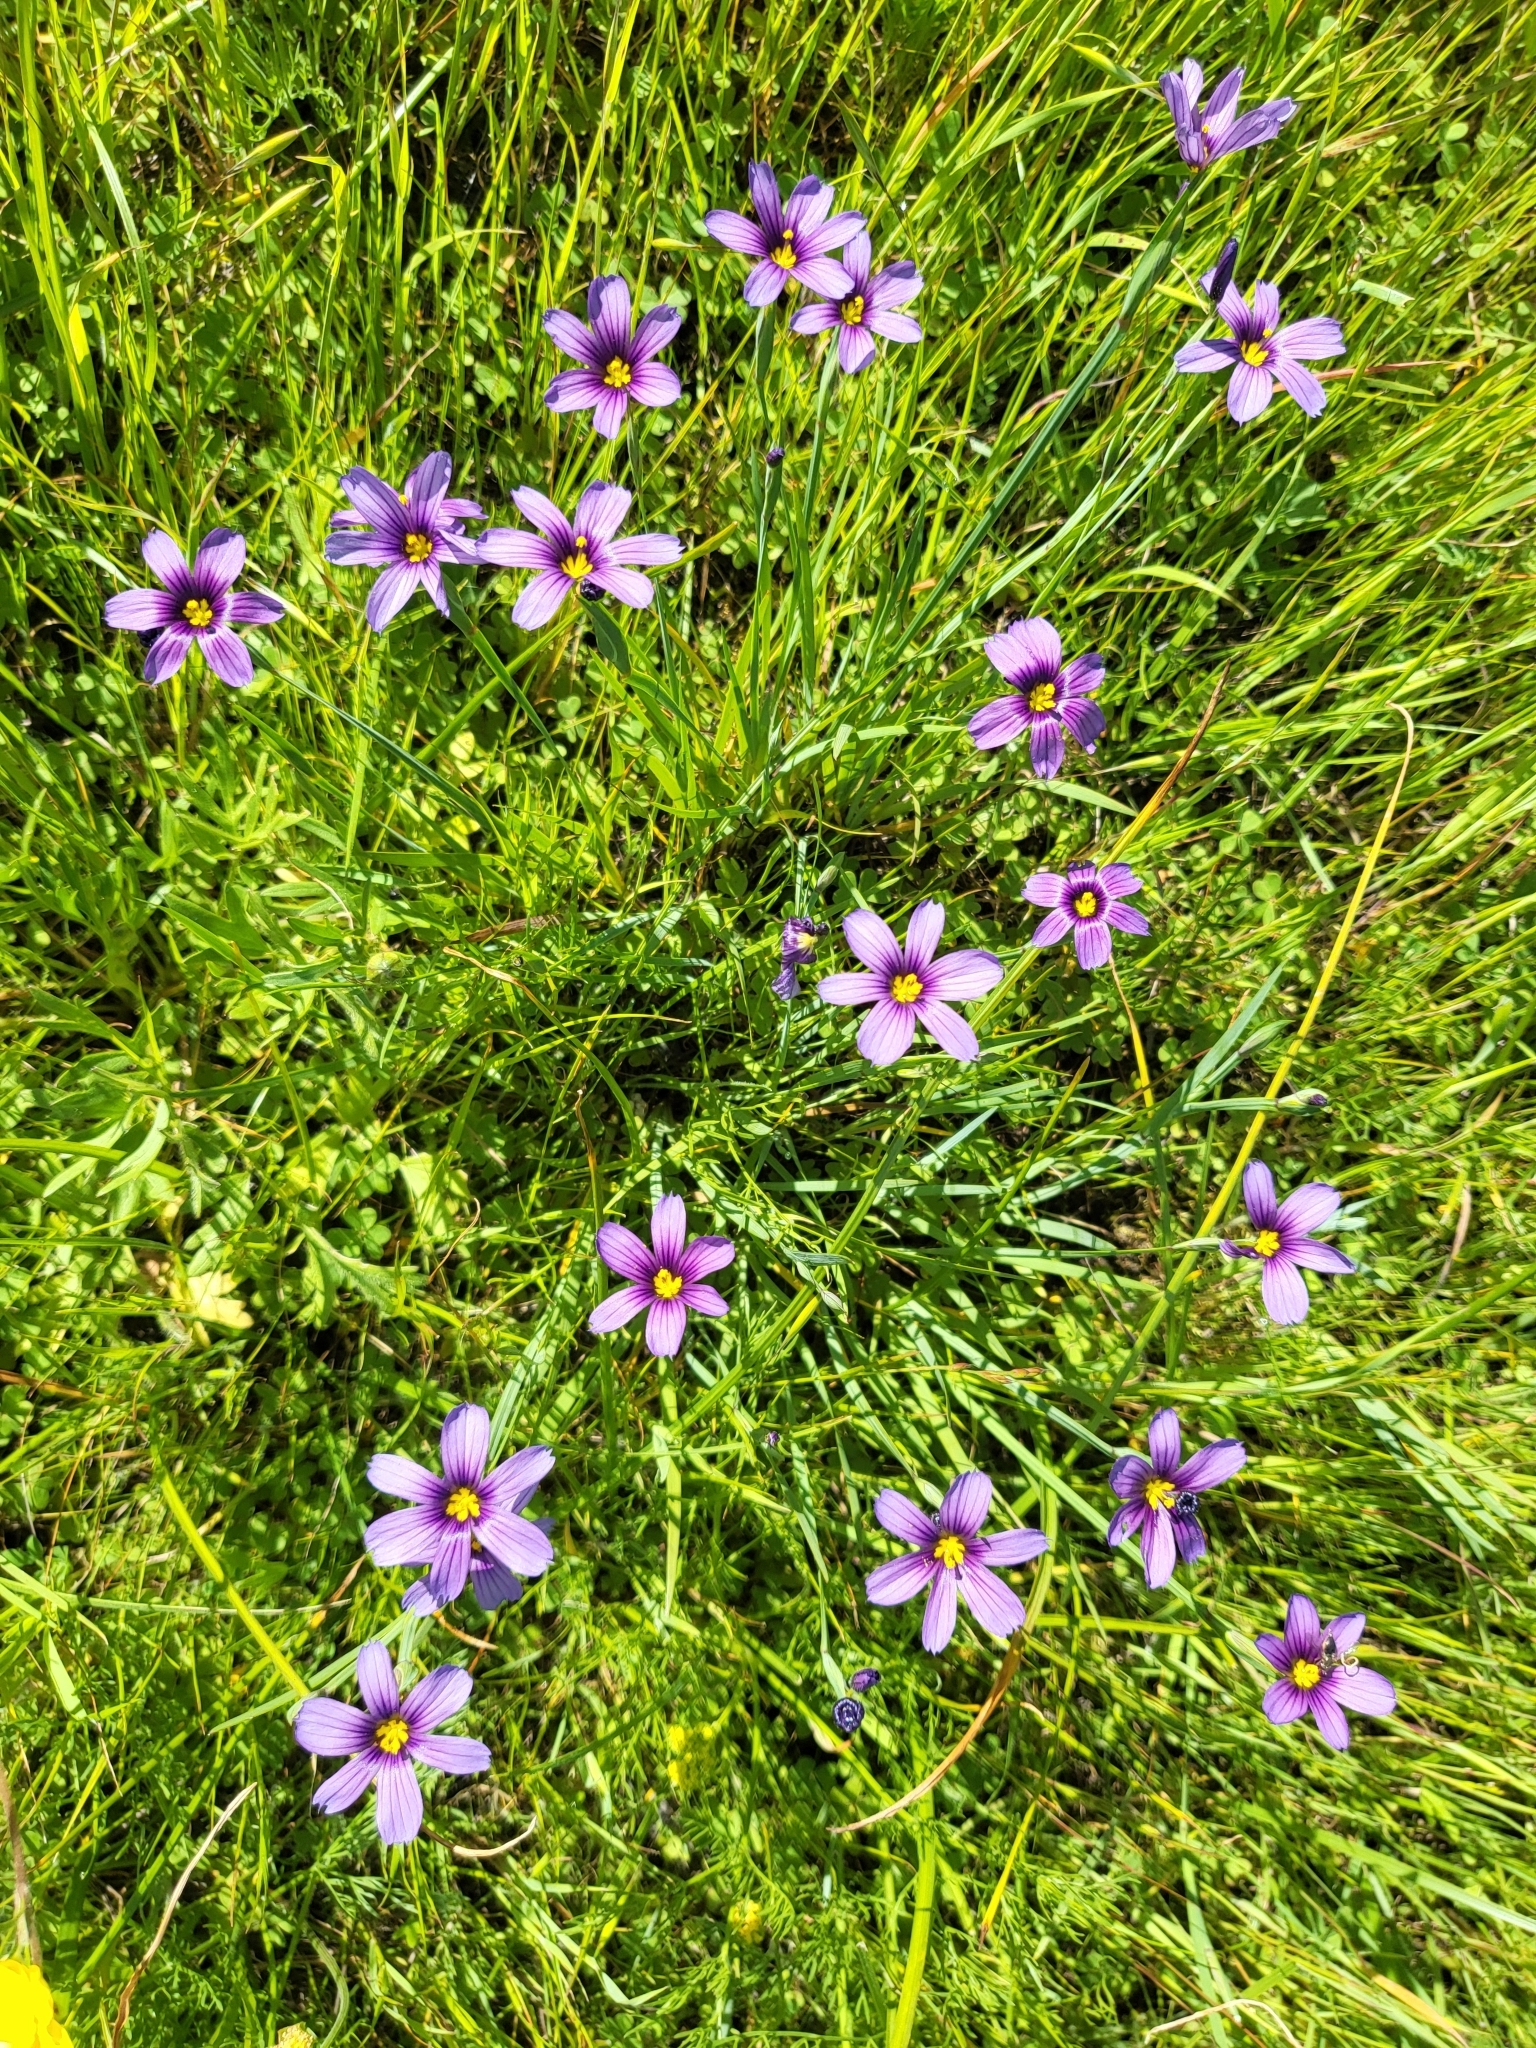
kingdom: Plantae
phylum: Tracheophyta
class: Liliopsida
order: Asparagales
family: Iridaceae
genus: Sisyrinchium
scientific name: Sisyrinchium bellum
